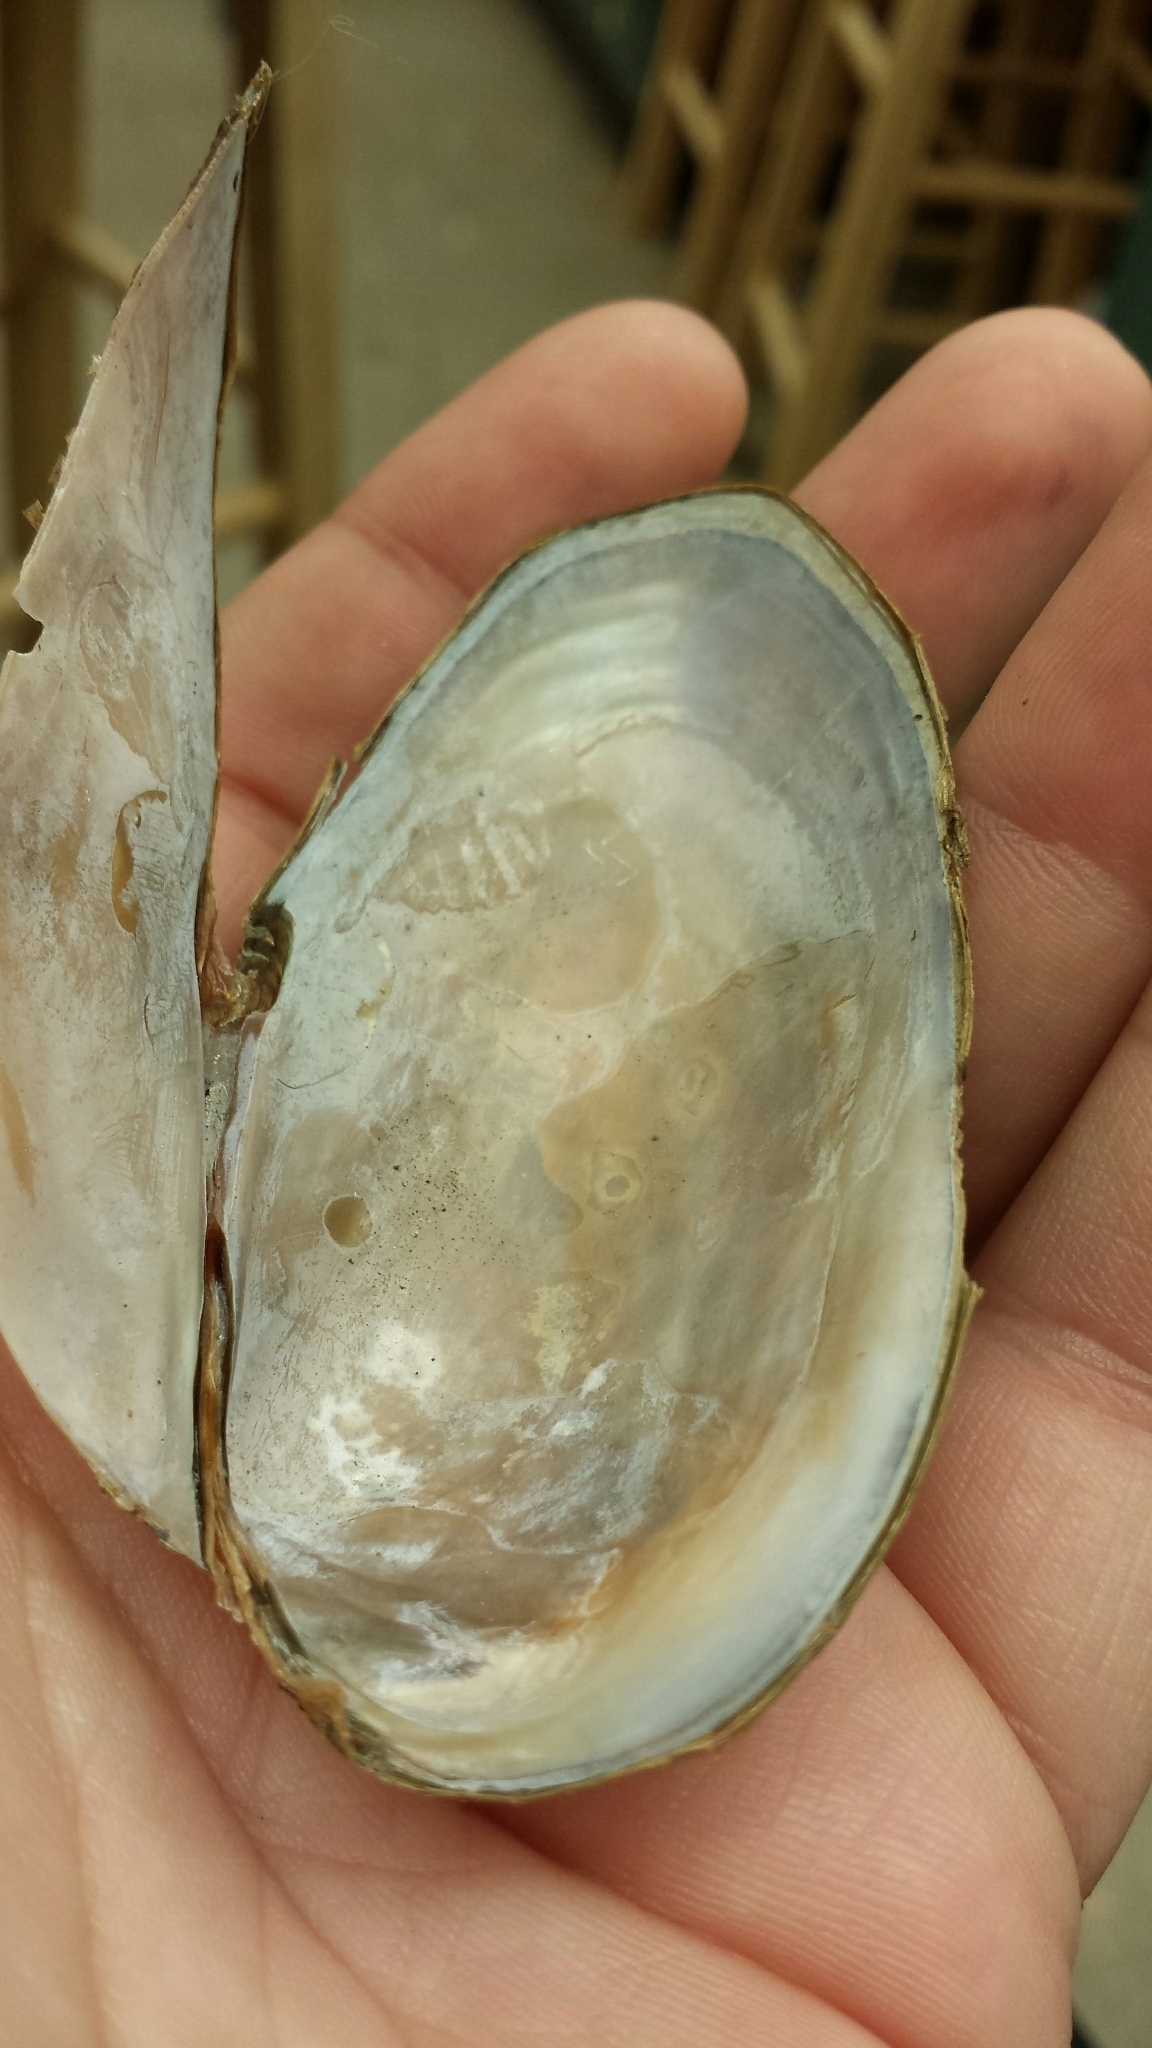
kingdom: Animalia
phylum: Mollusca
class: Bivalvia
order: Unionida
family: Unionidae
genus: Utterbackiana
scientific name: Utterbackiana implicata
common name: Alewife floater
